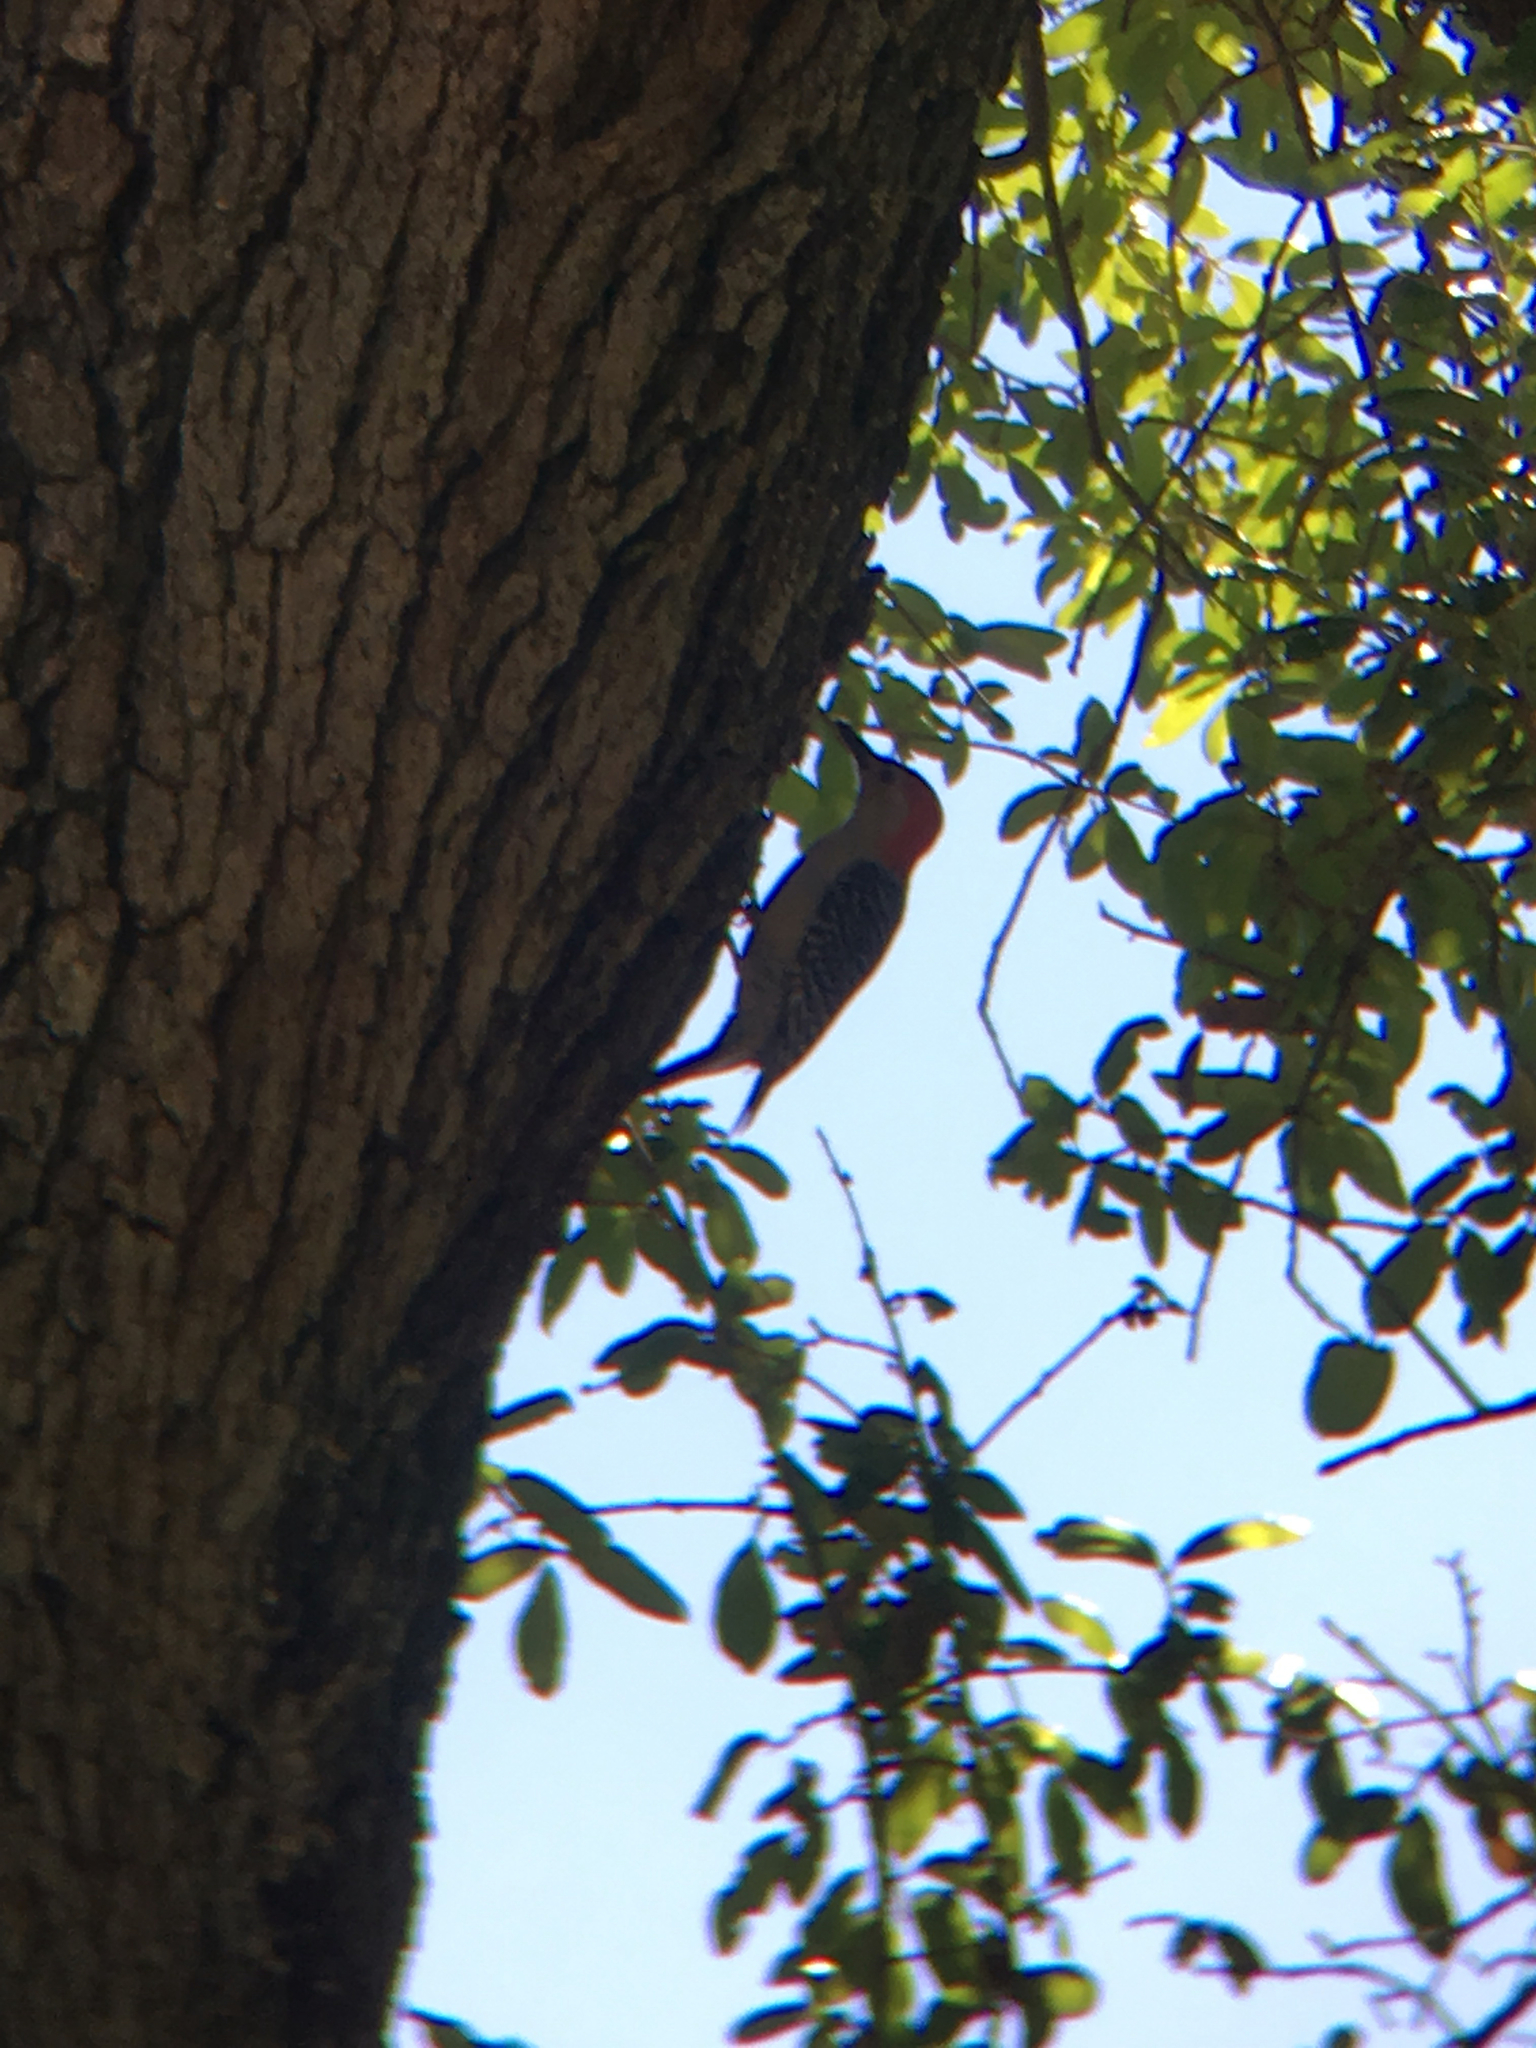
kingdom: Animalia
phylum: Chordata
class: Aves
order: Piciformes
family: Picidae
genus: Melanerpes
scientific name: Melanerpes carolinus
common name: Red-bellied woodpecker
